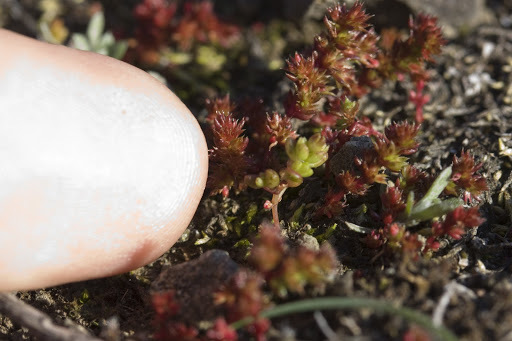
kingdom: Plantae
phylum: Tracheophyta
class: Magnoliopsida
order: Saxifragales
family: Crassulaceae
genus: Crassula
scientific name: Crassula tillaea
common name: Mossy stonecrop
